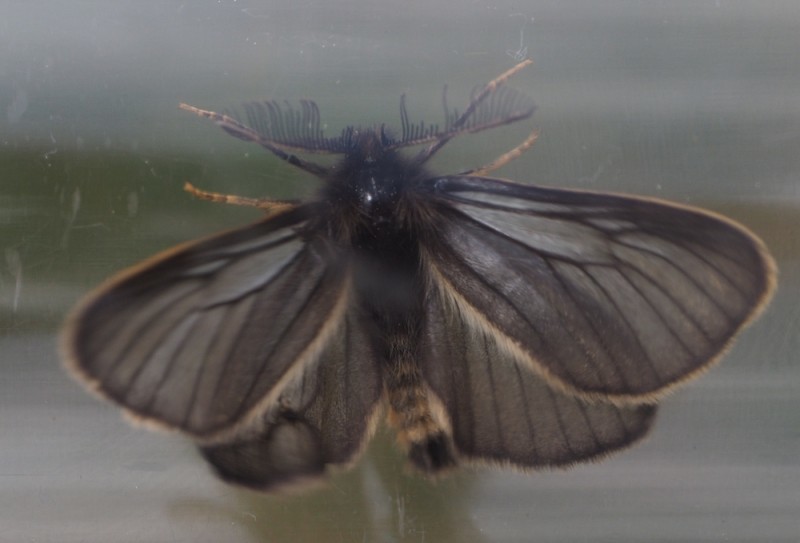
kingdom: Animalia
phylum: Arthropoda
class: Insecta
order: Lepidoptera
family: Erebidae
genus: Penthophera
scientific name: Penthophera morio
